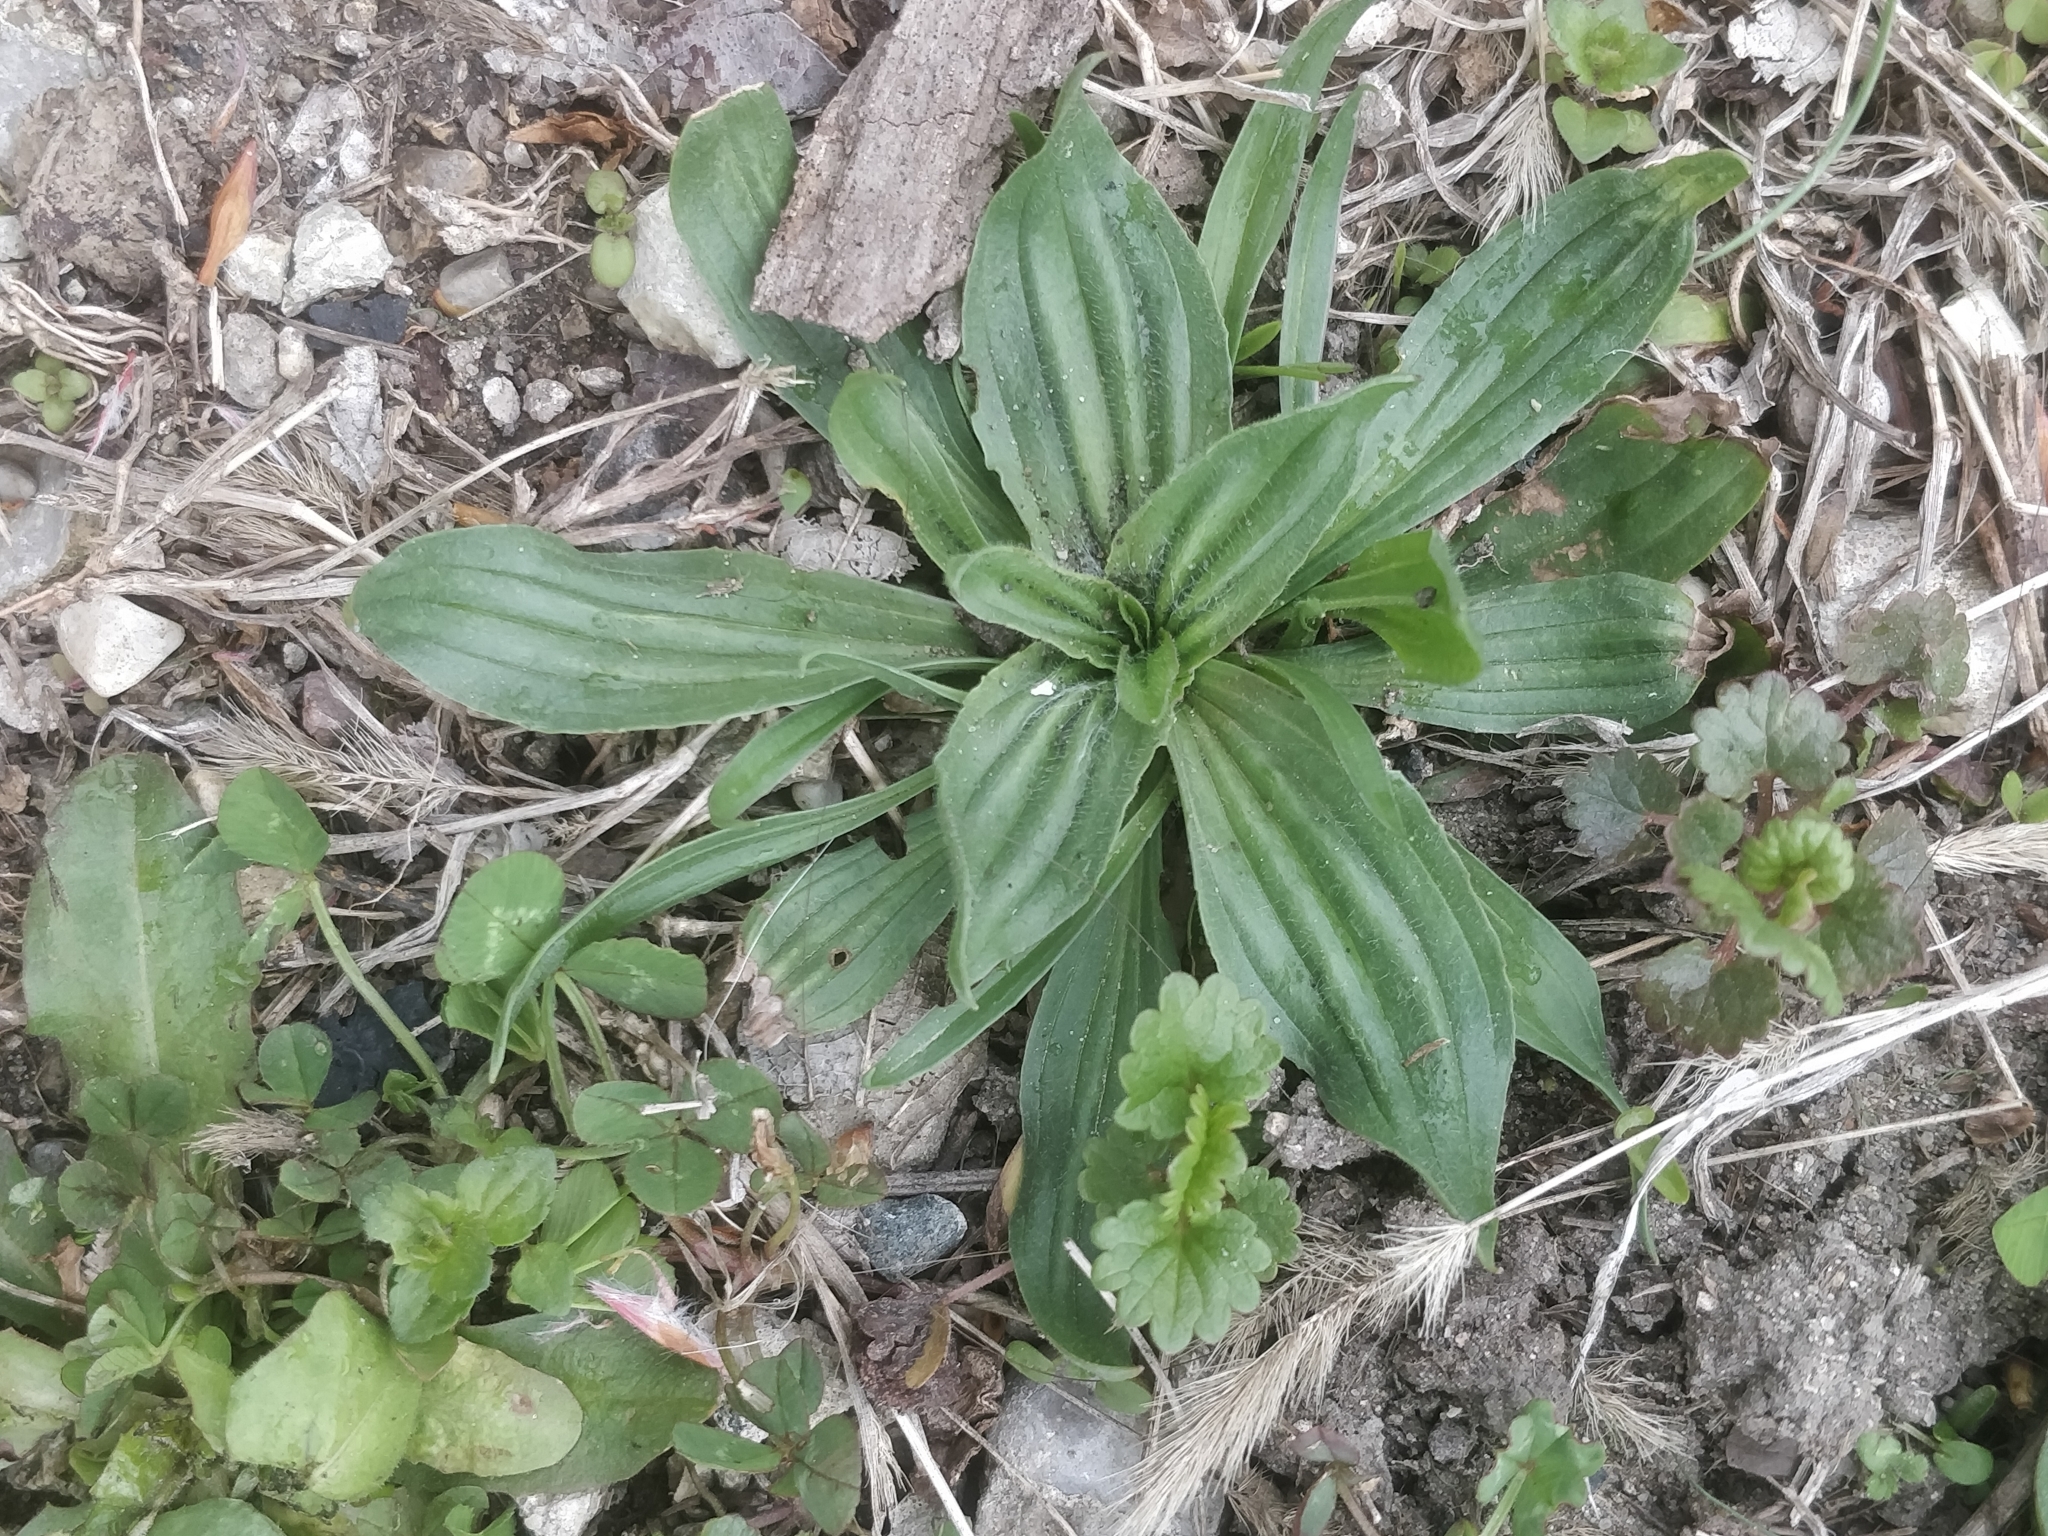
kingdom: Plantae
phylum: Tracheophyta
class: Magnoliopsida
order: Lamiales
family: Plantaginaceae
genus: Plantago
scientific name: Plantago lanceolata
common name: Ribwort plantain
